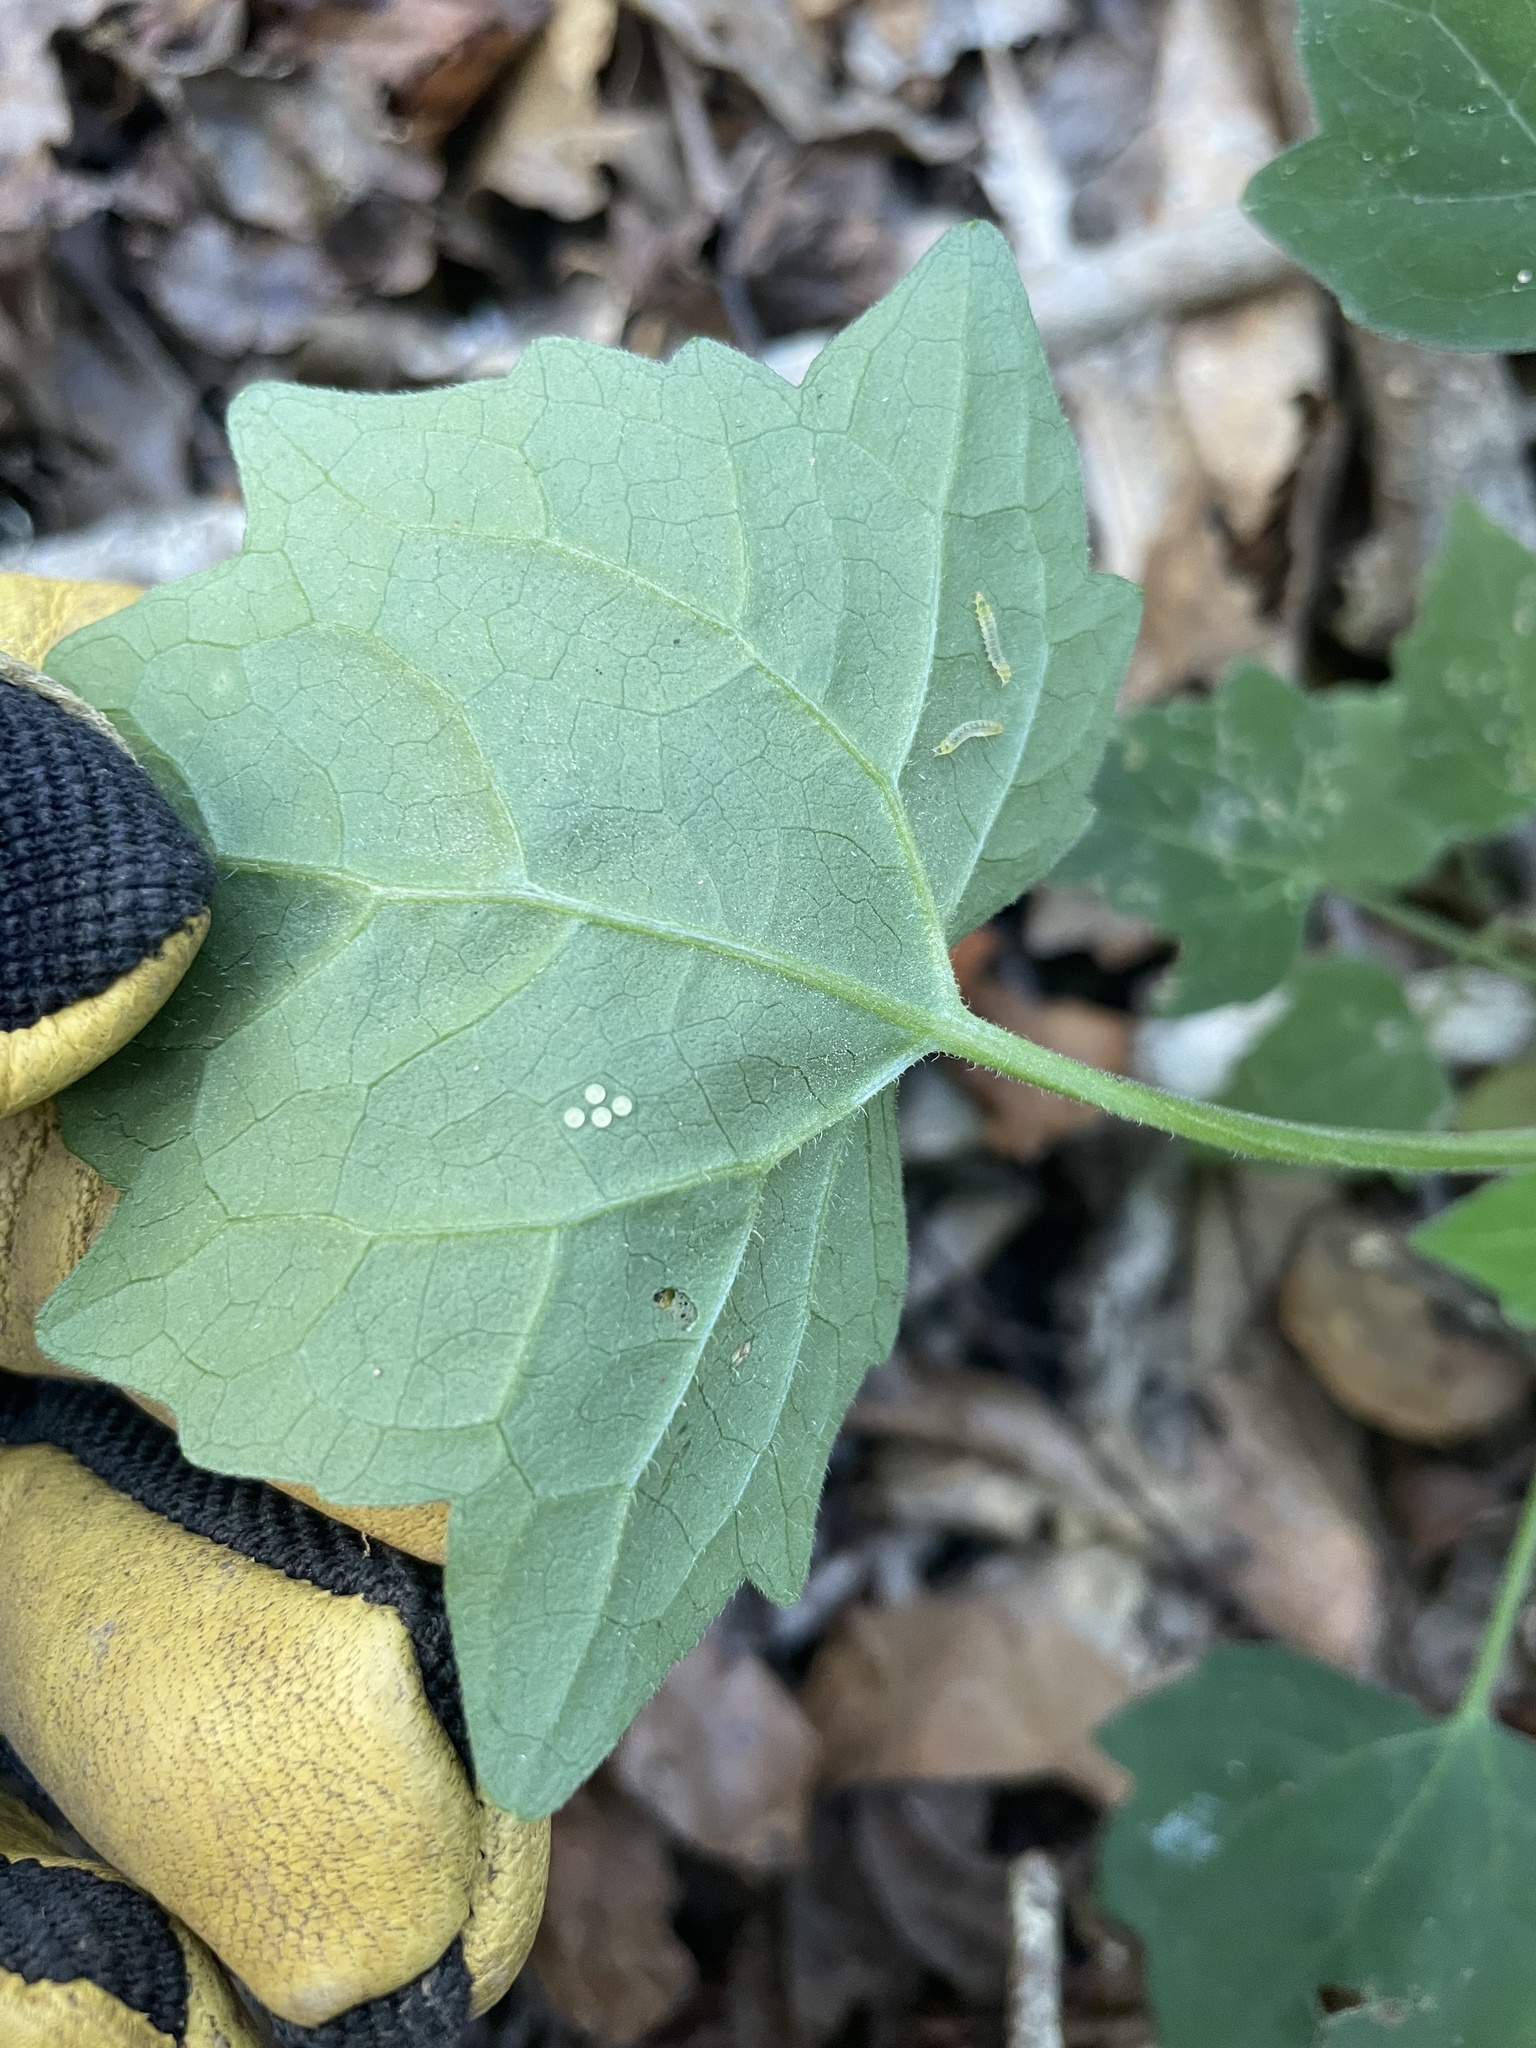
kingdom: Animalia
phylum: Arthropoda
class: Insecta
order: Lepidoptera
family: Erebidae
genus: Cosmosoma
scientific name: Cosmosoma myrodora
